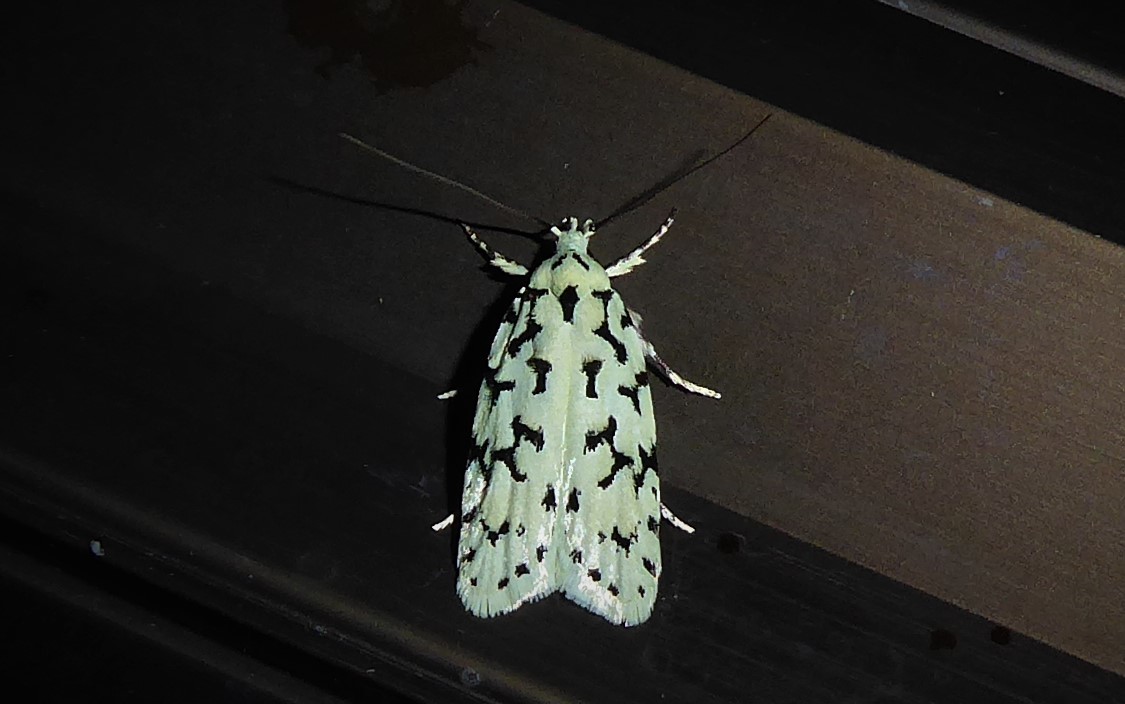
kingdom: Animalia
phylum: Arthropoda
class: Insecta
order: Lepidoptera
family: Oecophoridae
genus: Izatha
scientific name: Izatha huttoni
